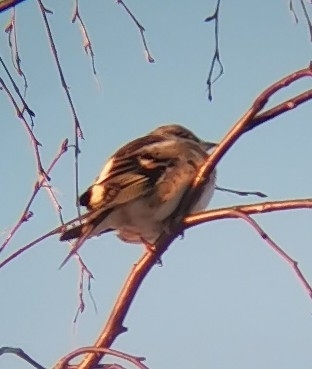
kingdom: Animalia
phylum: Chordata
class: Aves
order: Passeriformes
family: Fringillidae
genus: Fringilla
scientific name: Fringilla montifringilla
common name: Brambling
